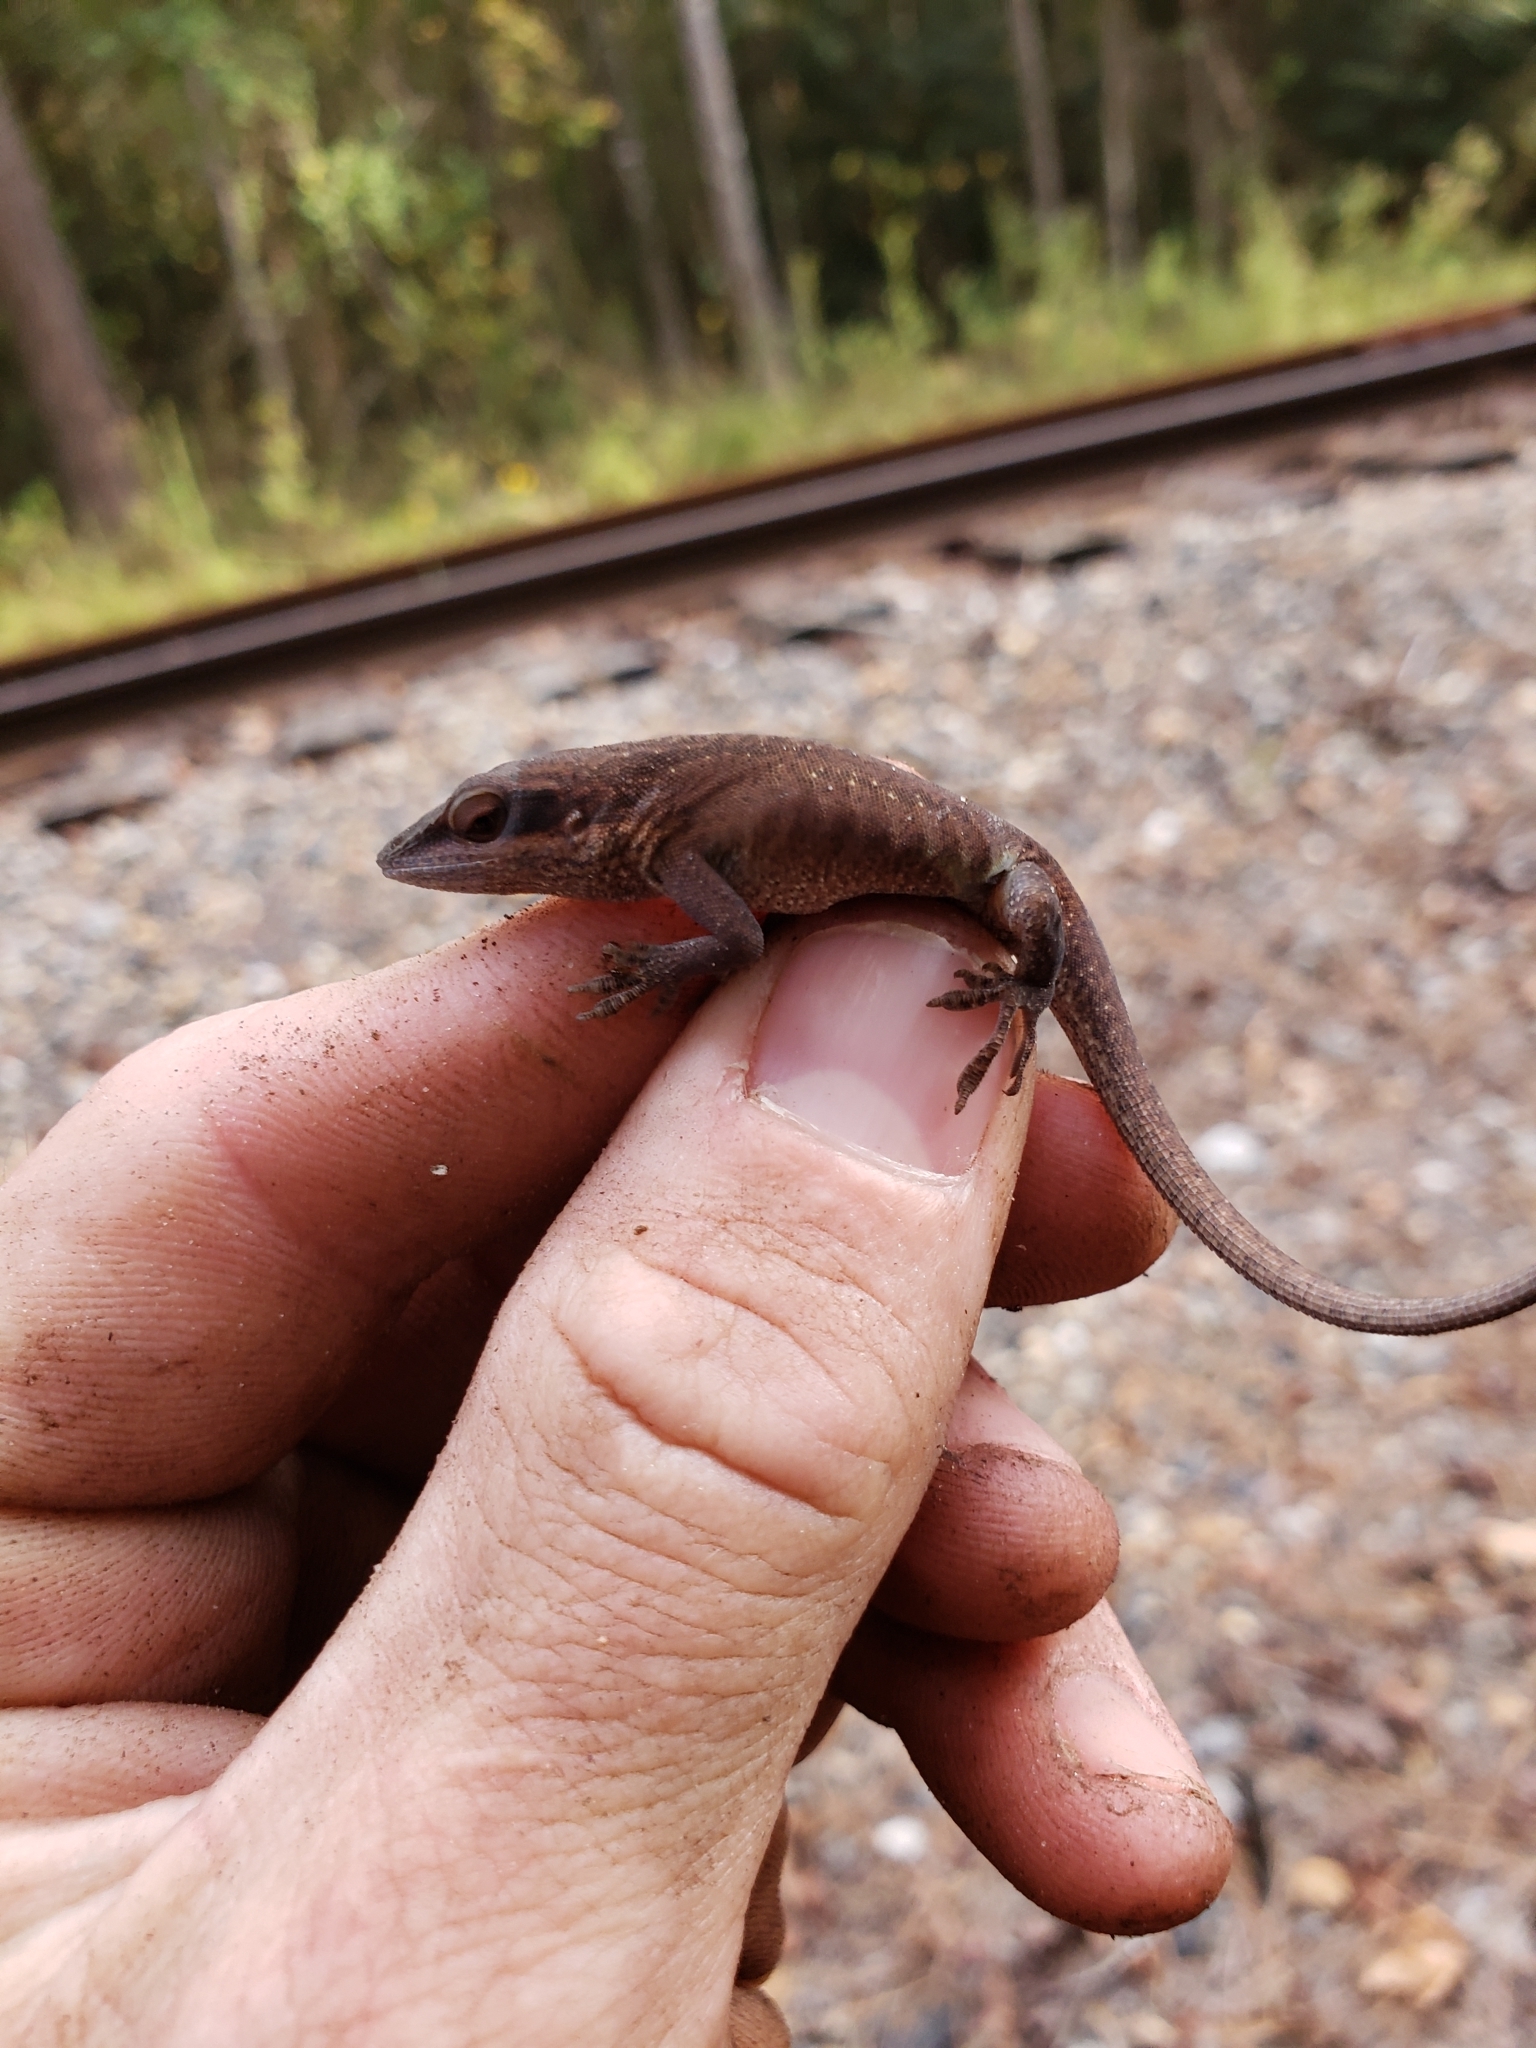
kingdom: Animalia
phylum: Chordata
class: Squamata
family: Dactyloidae
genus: Anolis
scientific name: Anolis carolinensis
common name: Green anole
